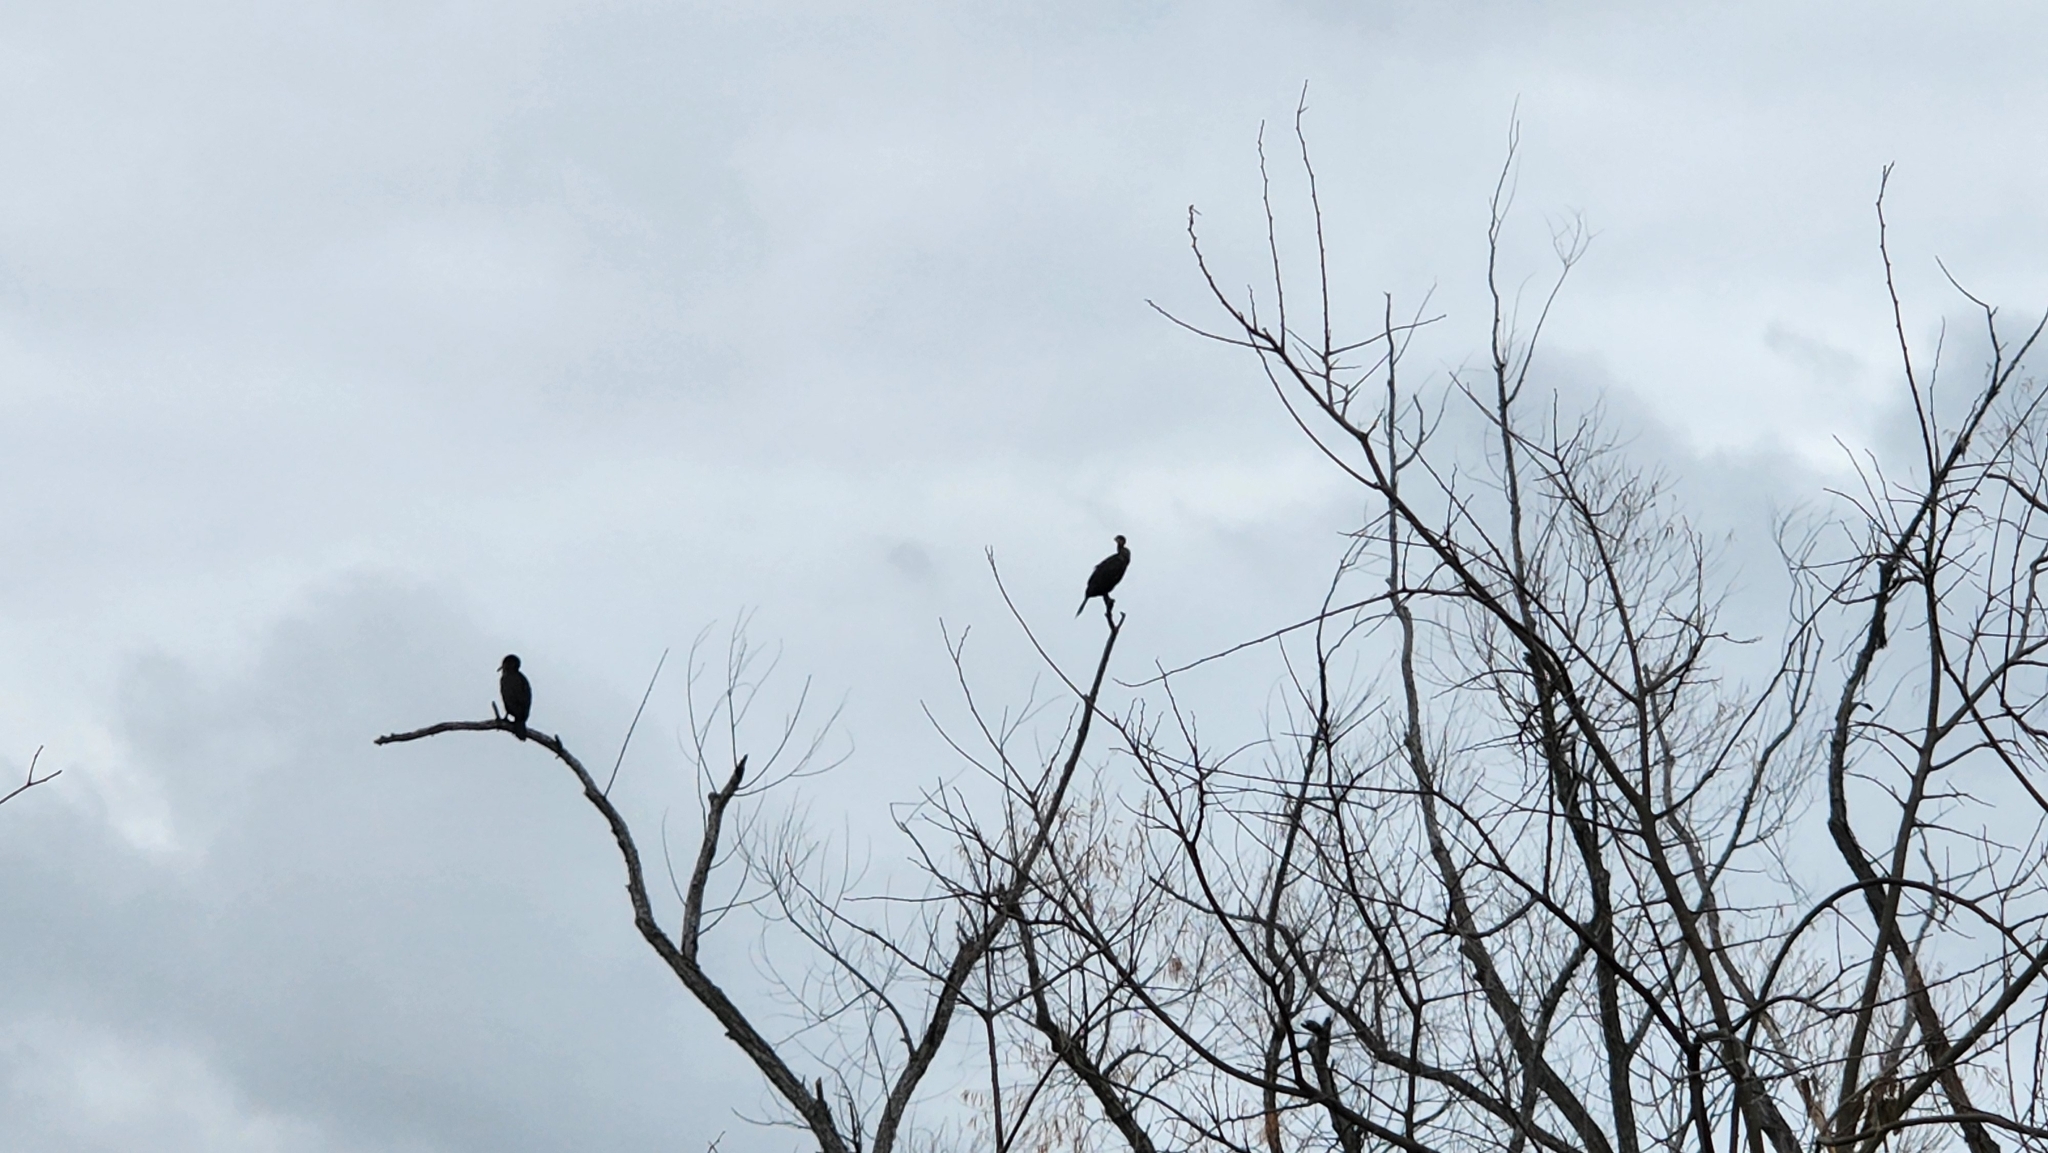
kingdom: Animalia
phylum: Chordata
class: Aves
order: Suliformes
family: Phalacrocoracidae
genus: Phalacrocorax
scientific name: Phalacrocorax auritus
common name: Double-crested cormorant
